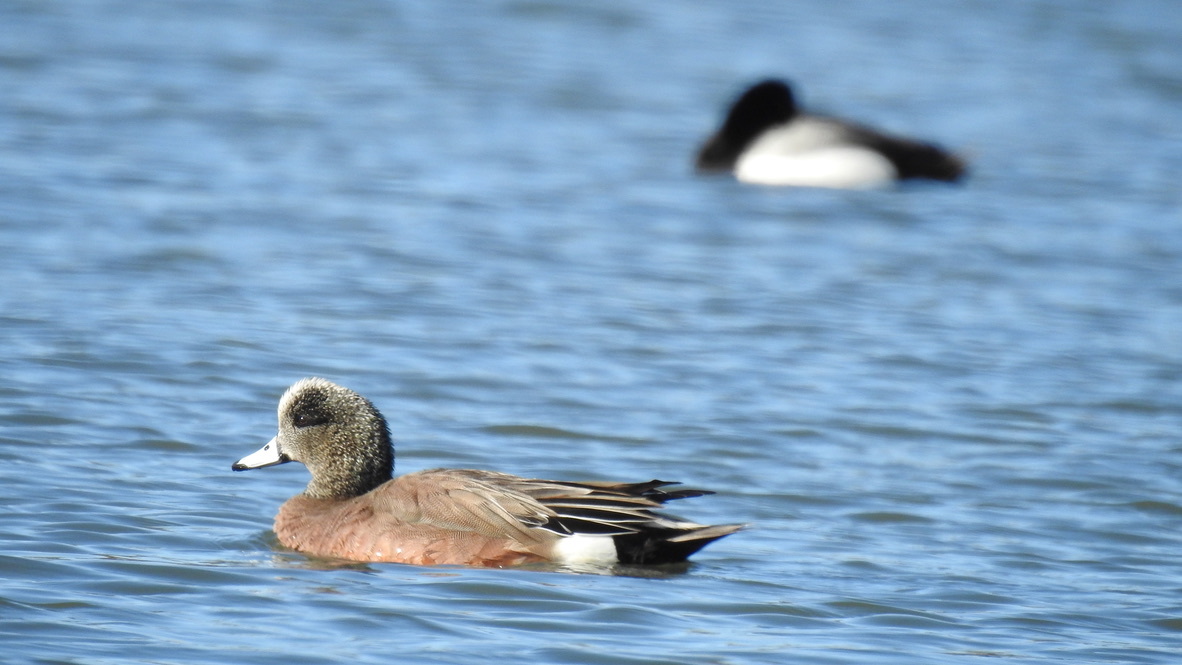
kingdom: Animalia
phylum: Chordata
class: Aves
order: Anseriformes
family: Anatidae
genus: Mareca
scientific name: Mareca americana
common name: American wigeon
